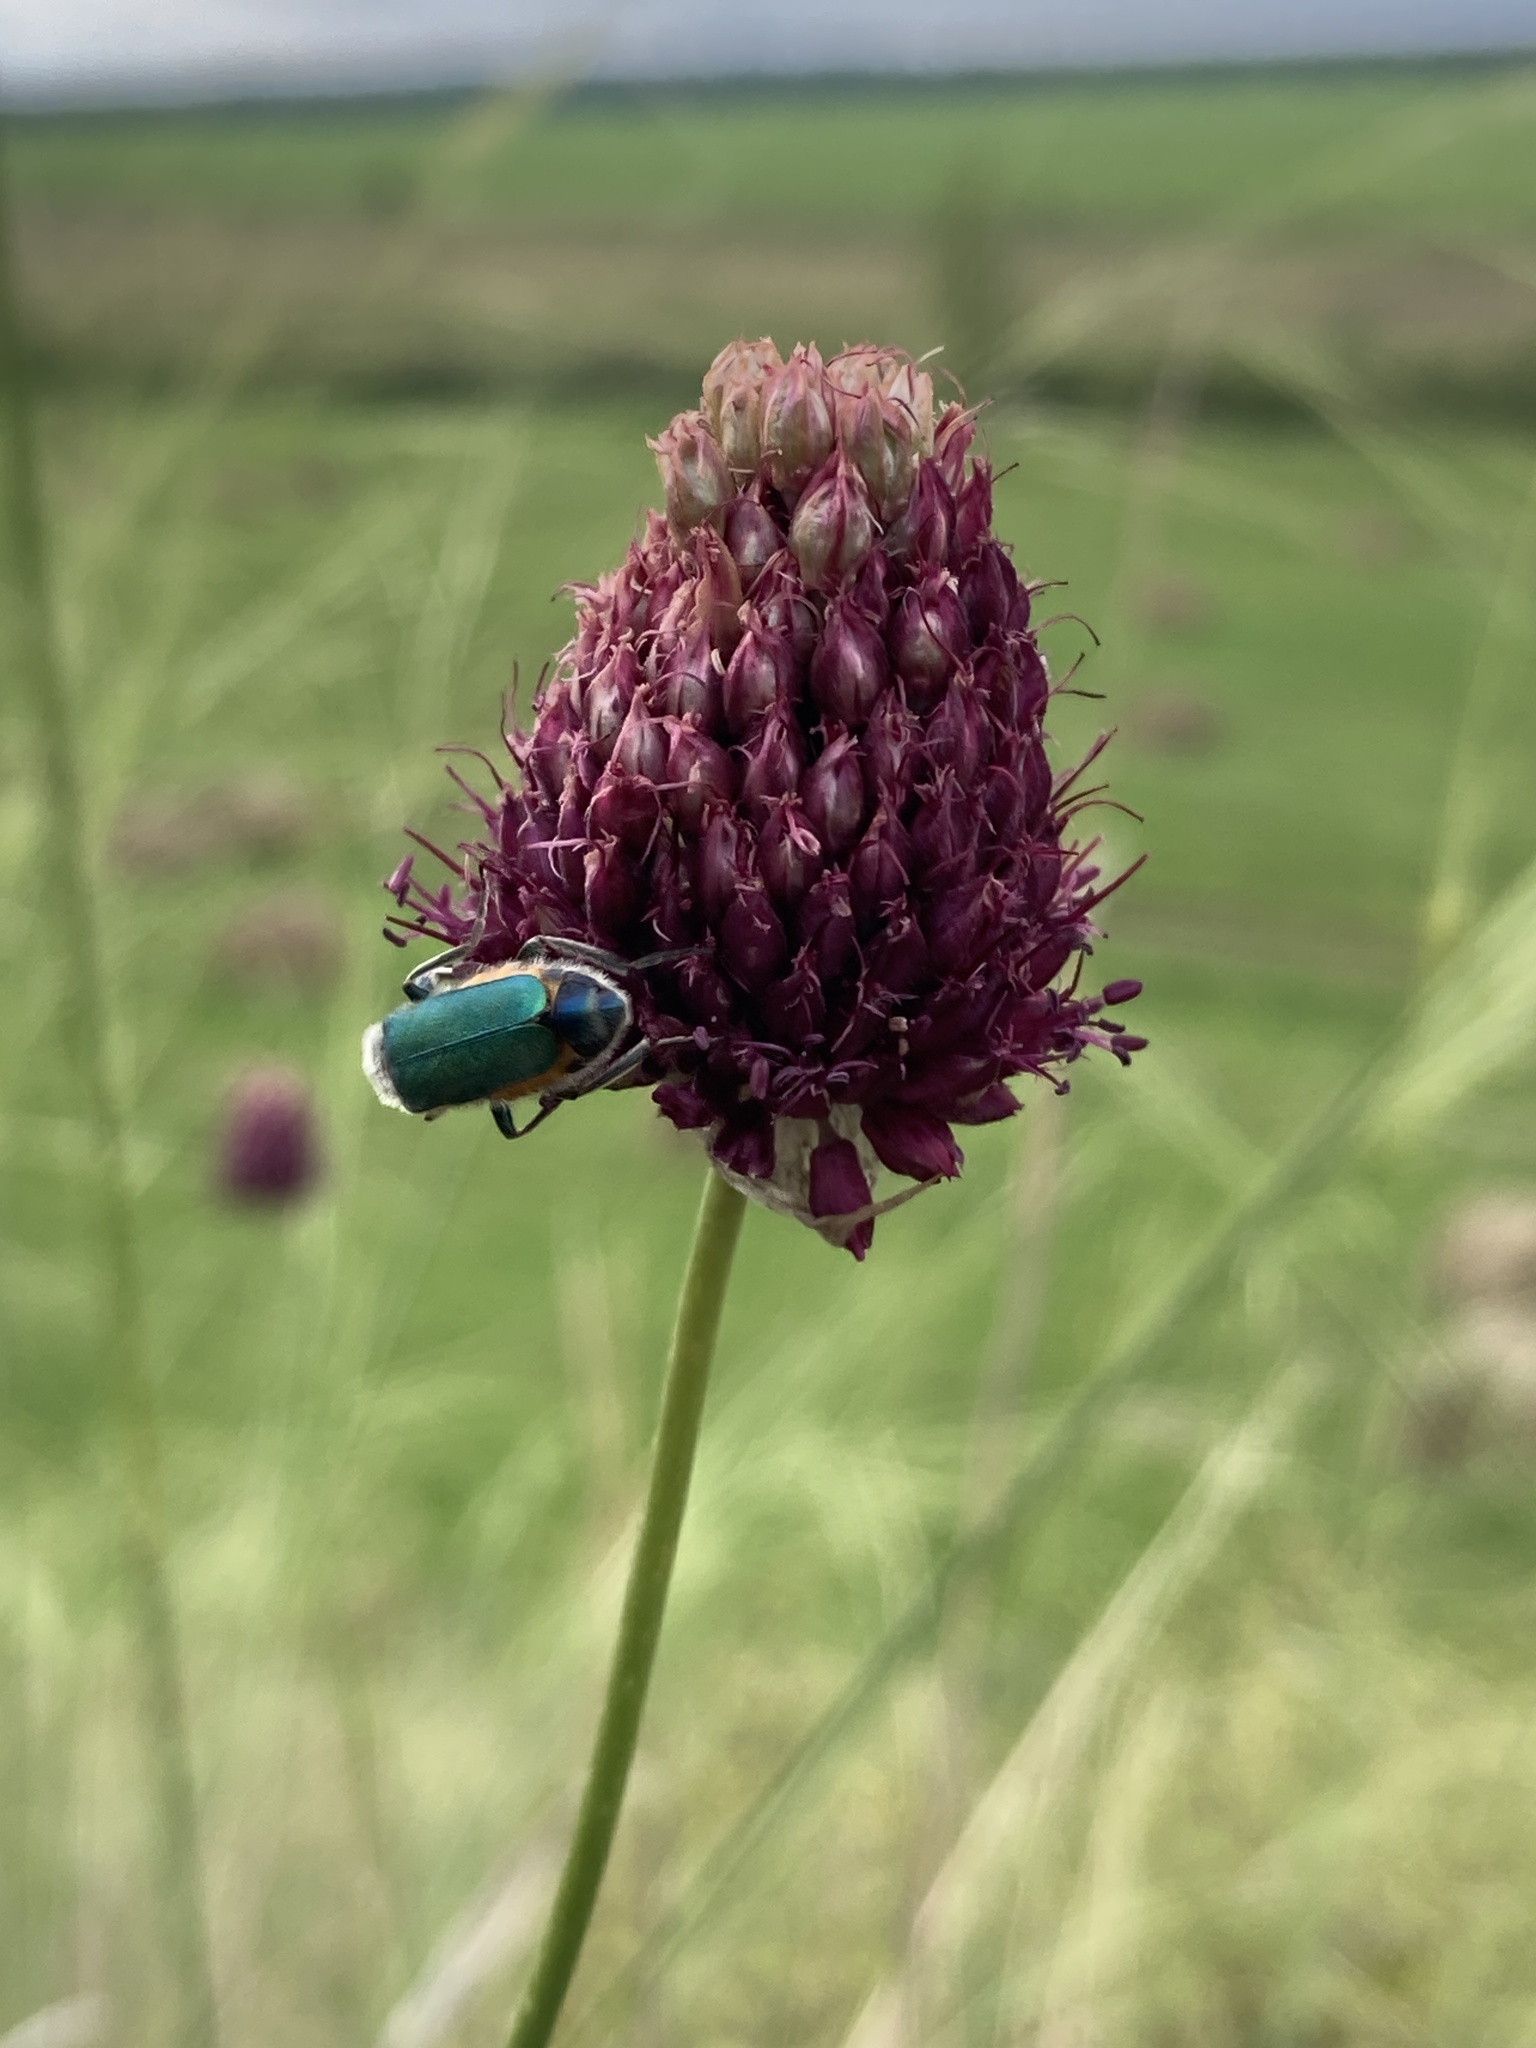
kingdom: Plantae
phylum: Tracheophyta
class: Liliopsida
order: Asparagales
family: Amaryllidaceae
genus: Allium
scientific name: Allium sphaerocephalon
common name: Round-headed leek
